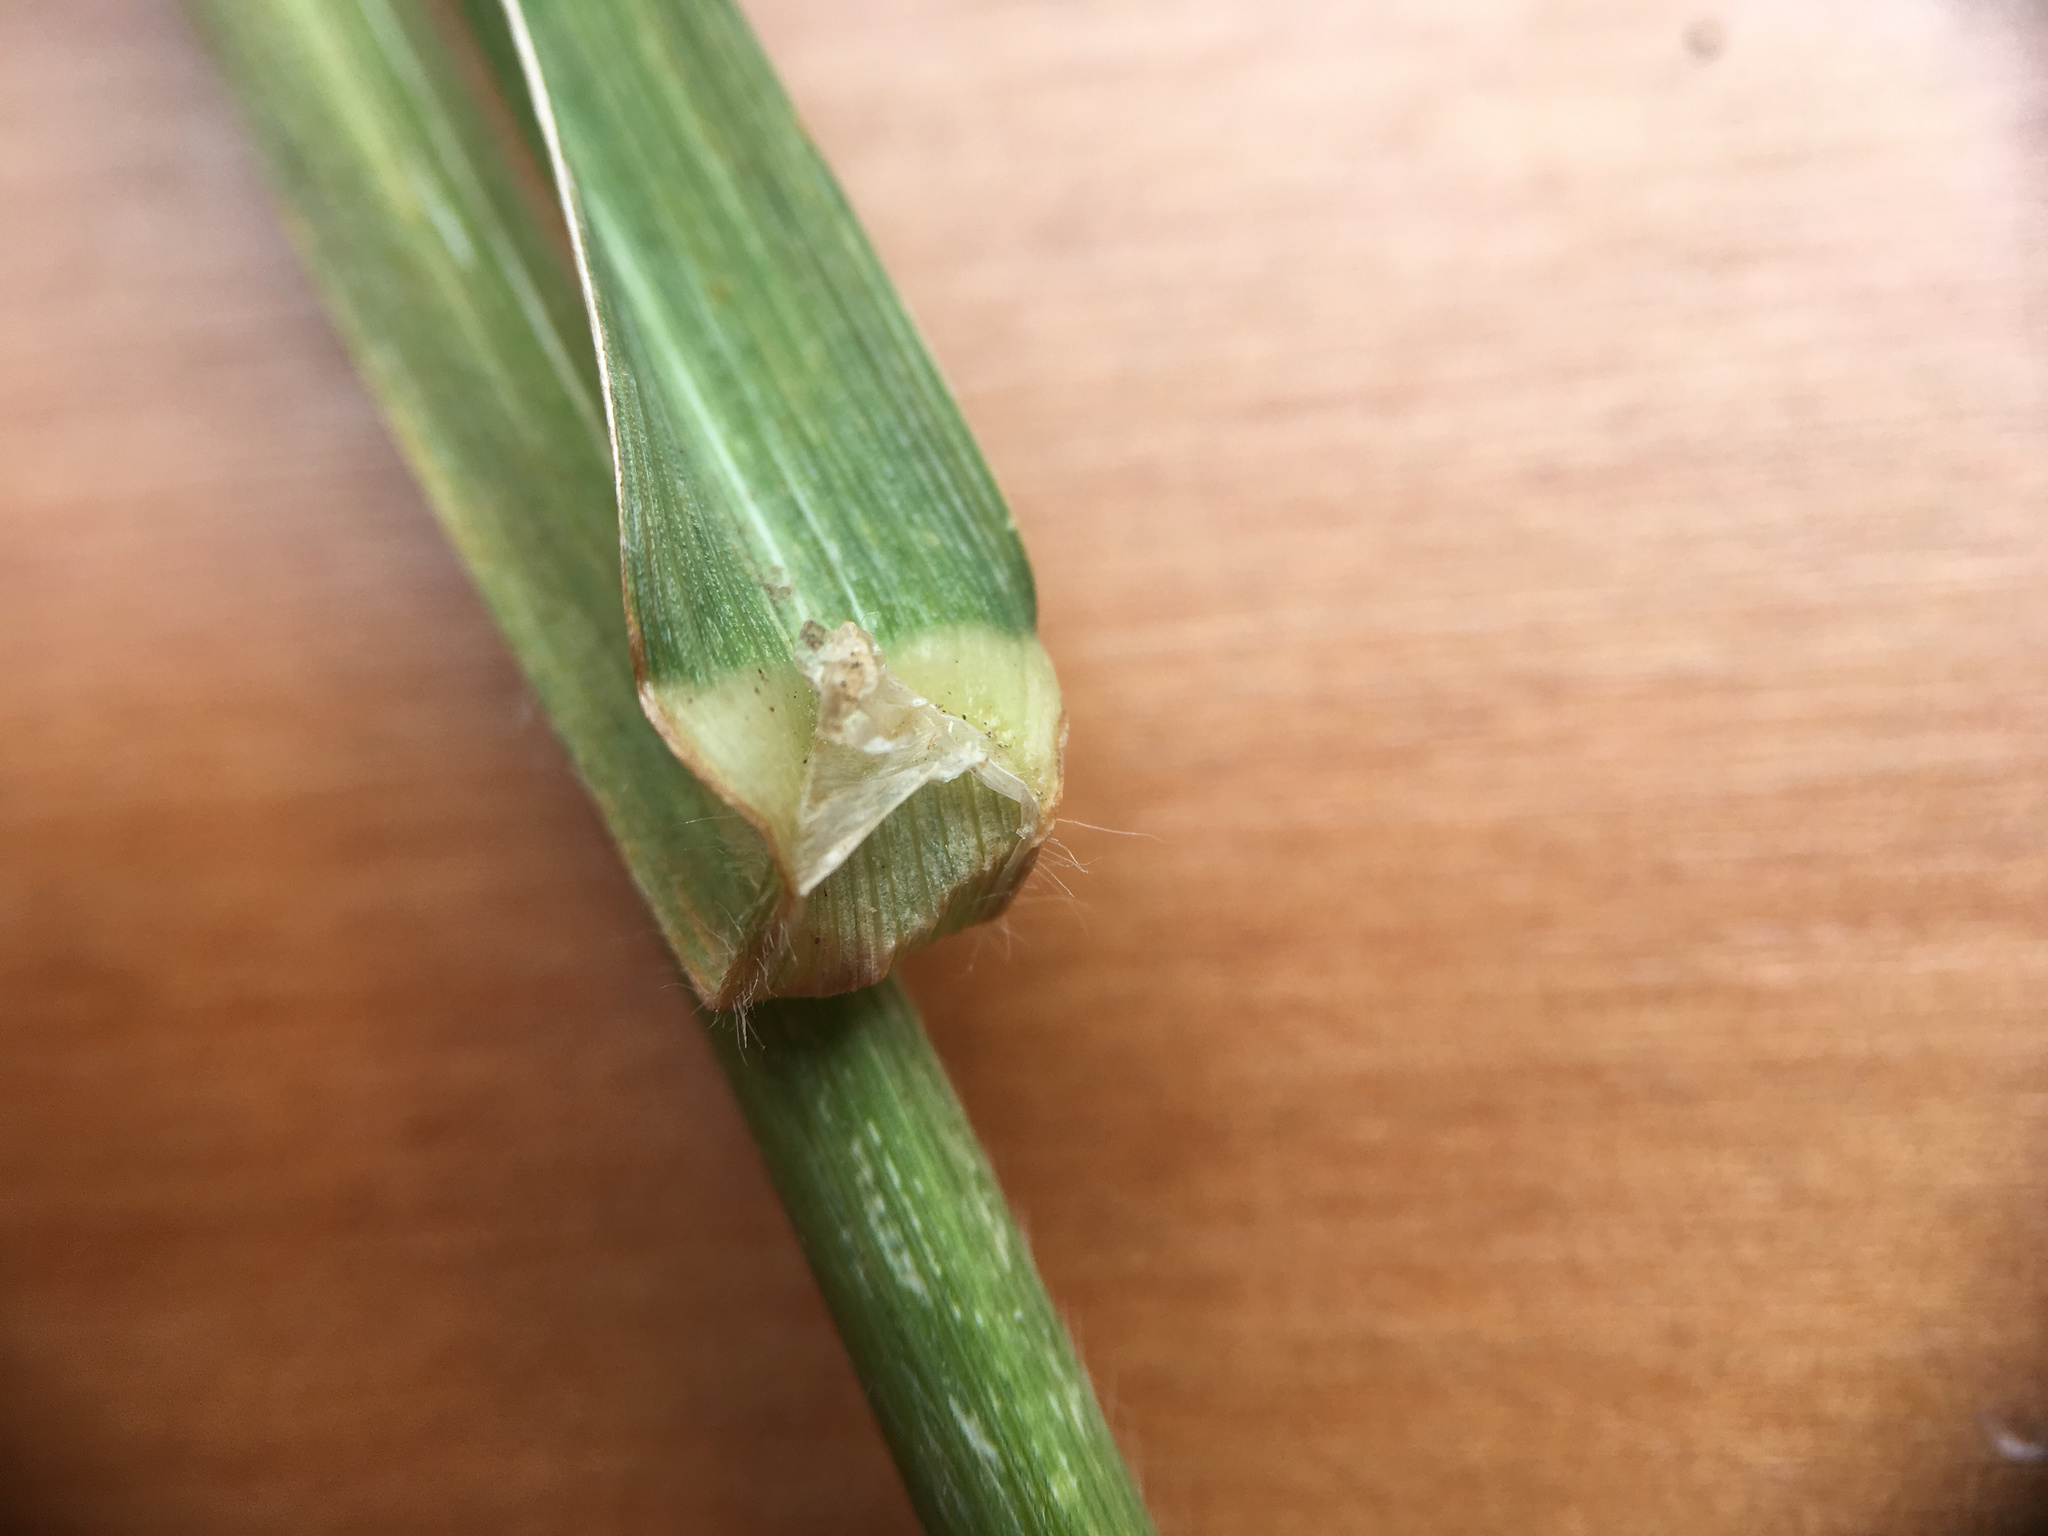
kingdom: Plantae
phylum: Tracheophyta
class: Liliopsida
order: Poales
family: Poaceae
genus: Bromus
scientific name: Bromus catharticus
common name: Rescuegrass
